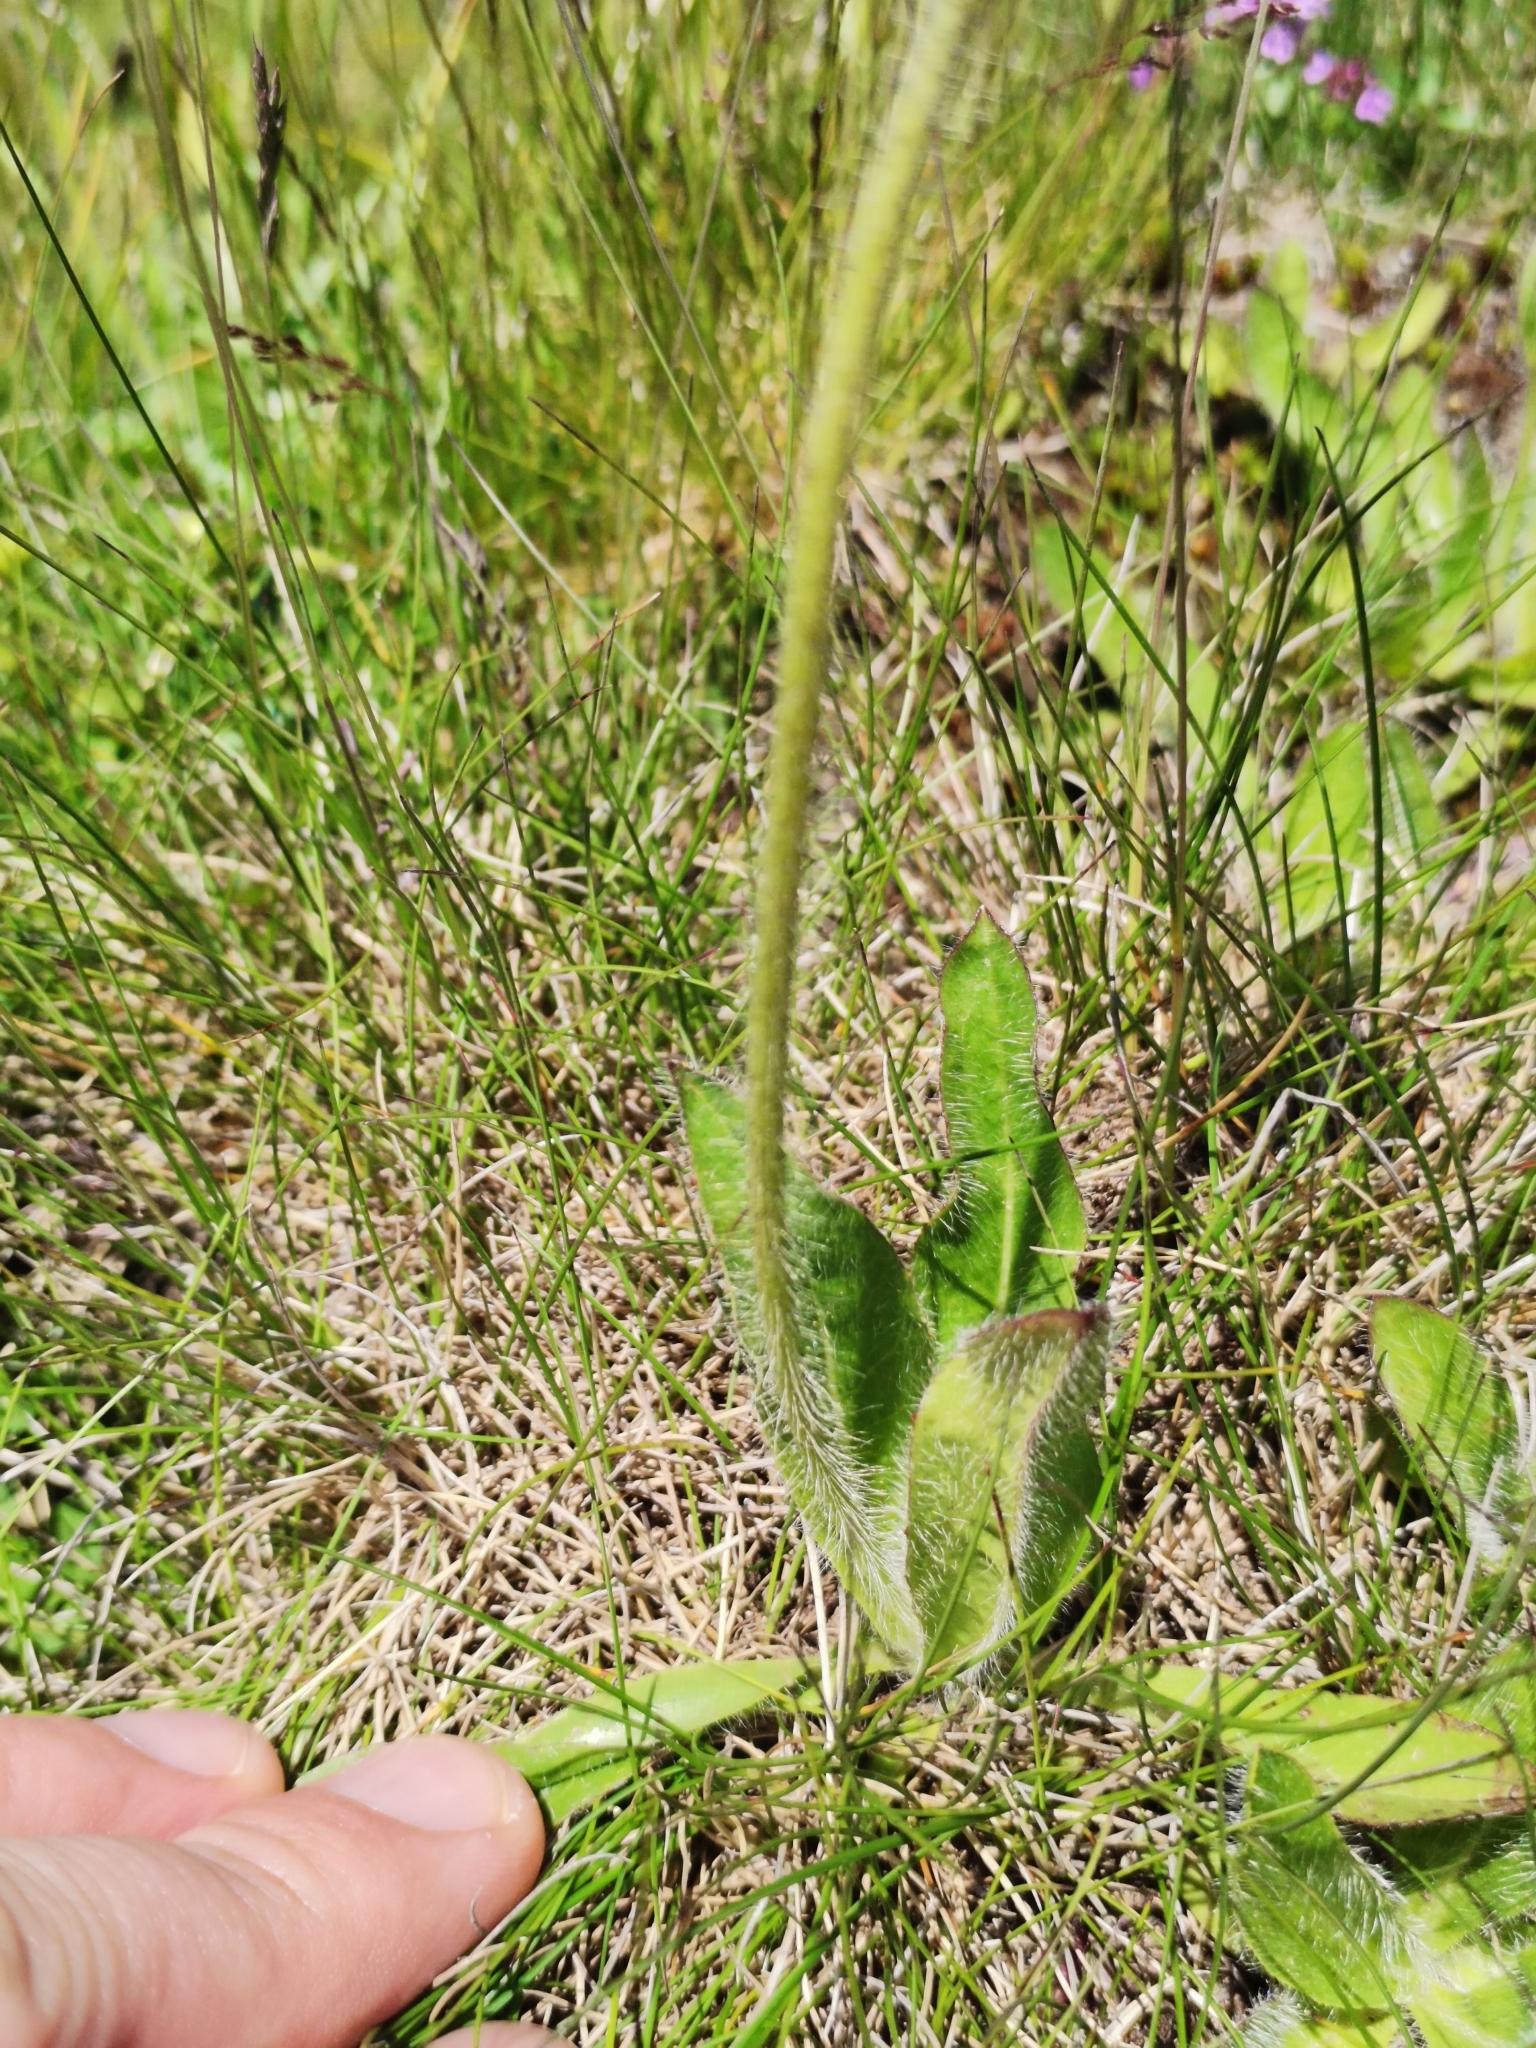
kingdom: Plantae
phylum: Tracheophyta
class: Magnoliopsida
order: Asterales
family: Asteraceae
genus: Pilosella
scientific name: Pilosella aurantiaca
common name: Fox-and-cubs
